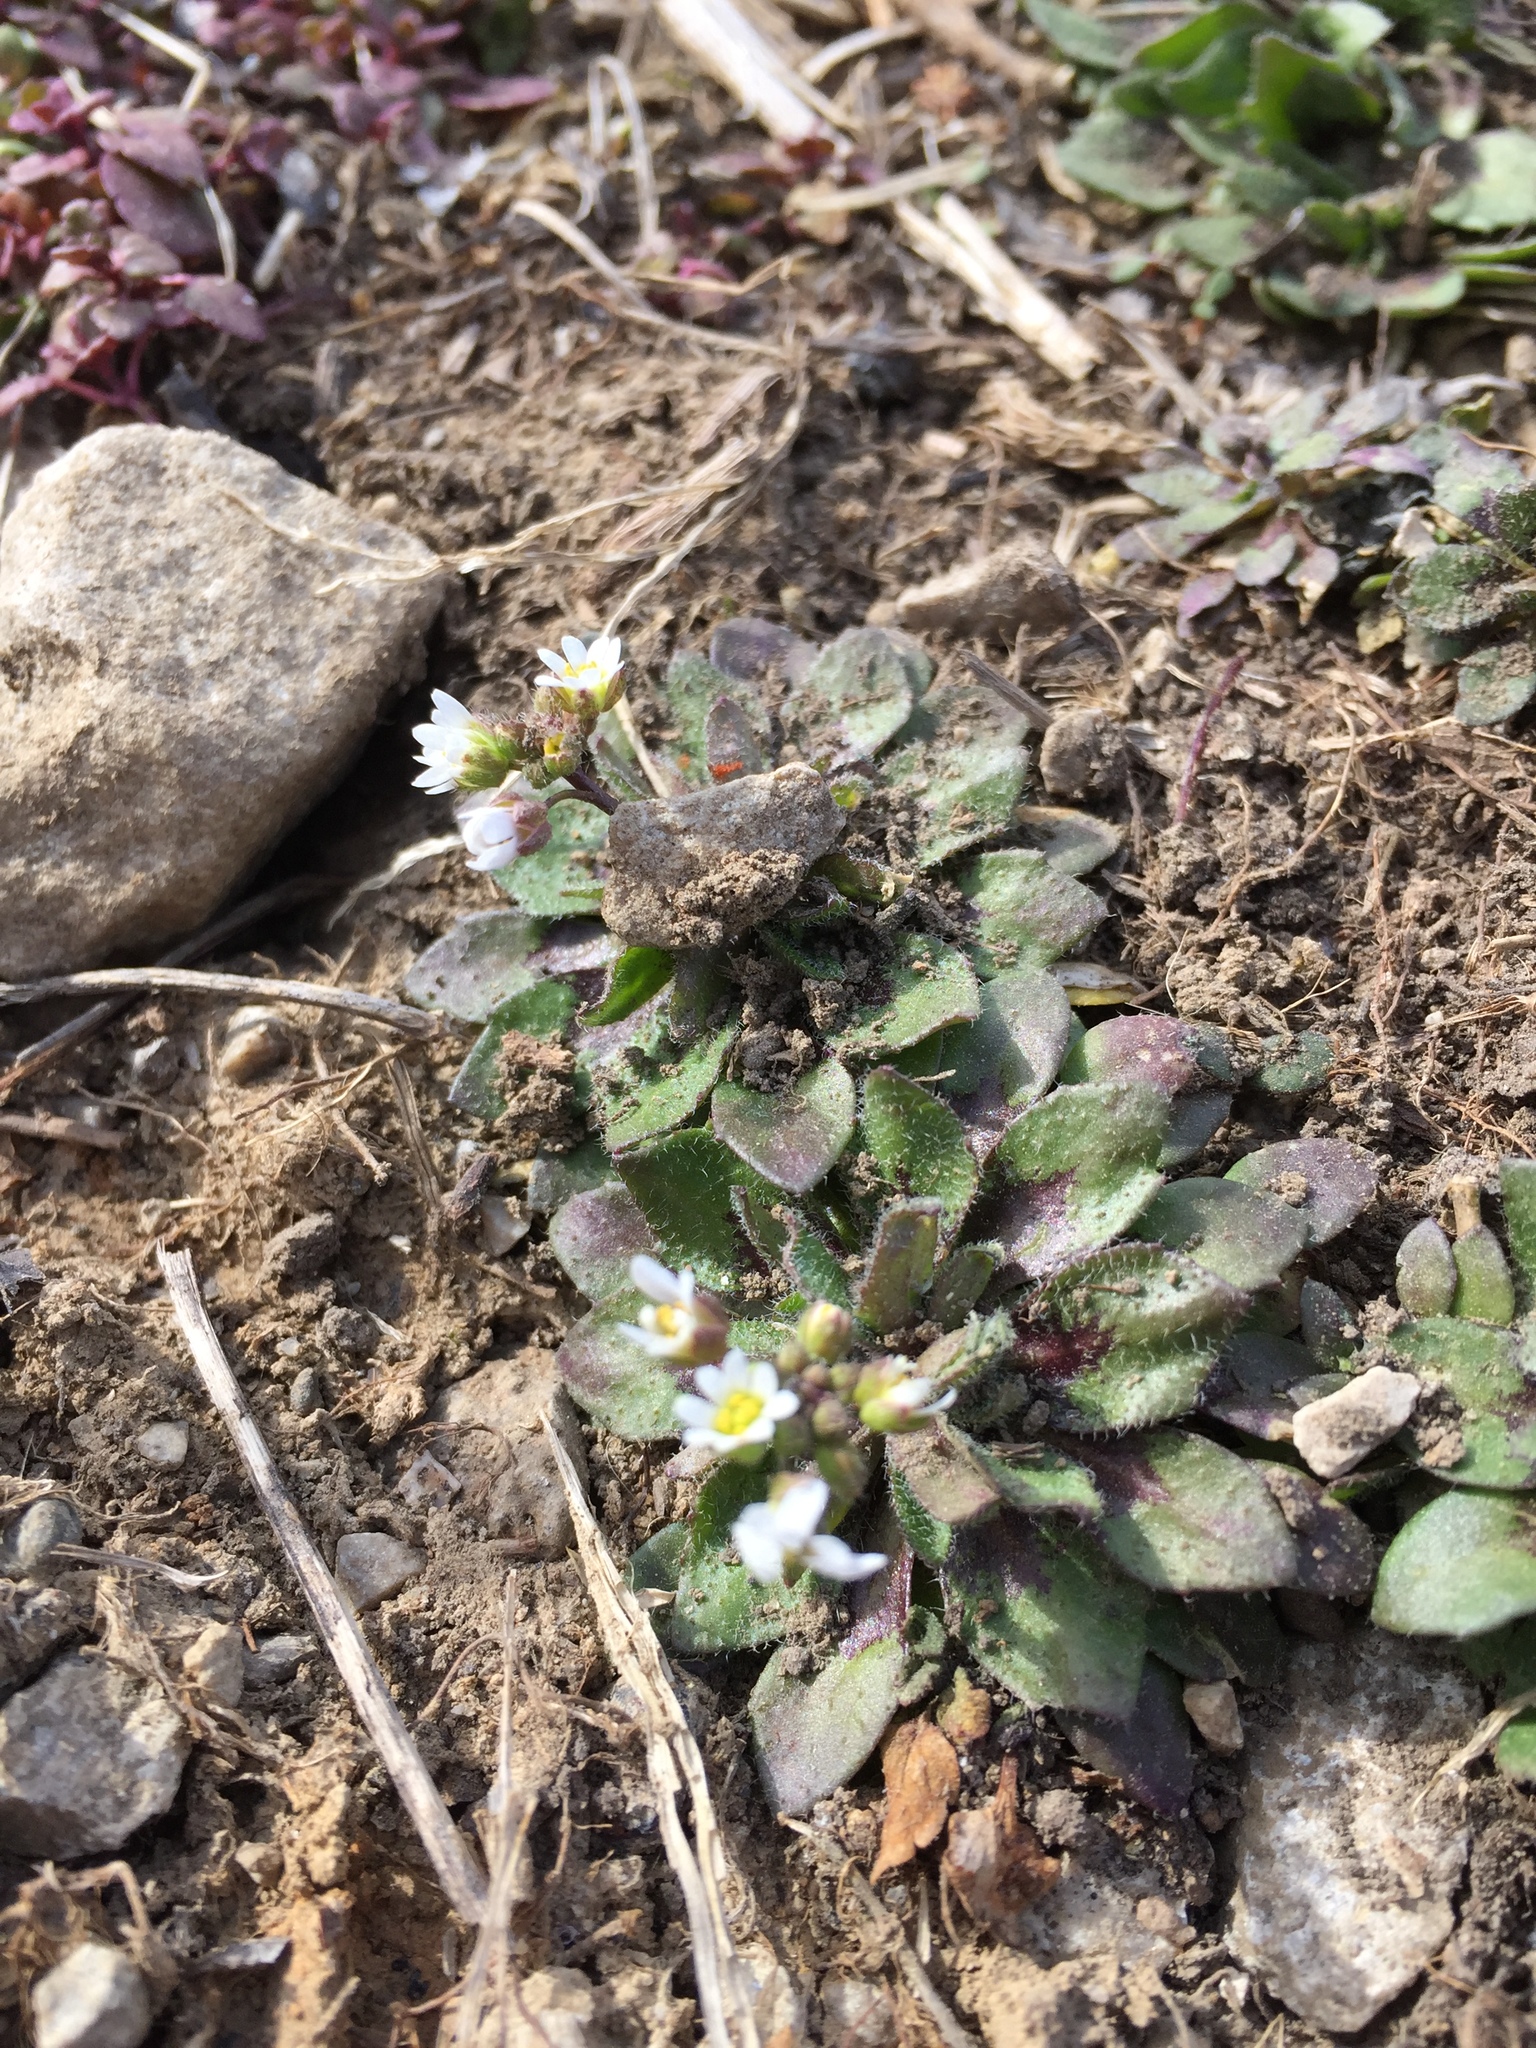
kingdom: Plantae
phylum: Tracheophyta
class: Magnoliopsida
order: Brassicales
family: Brassicaceae
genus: Draba
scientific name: Draba verna
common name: Spring draba
